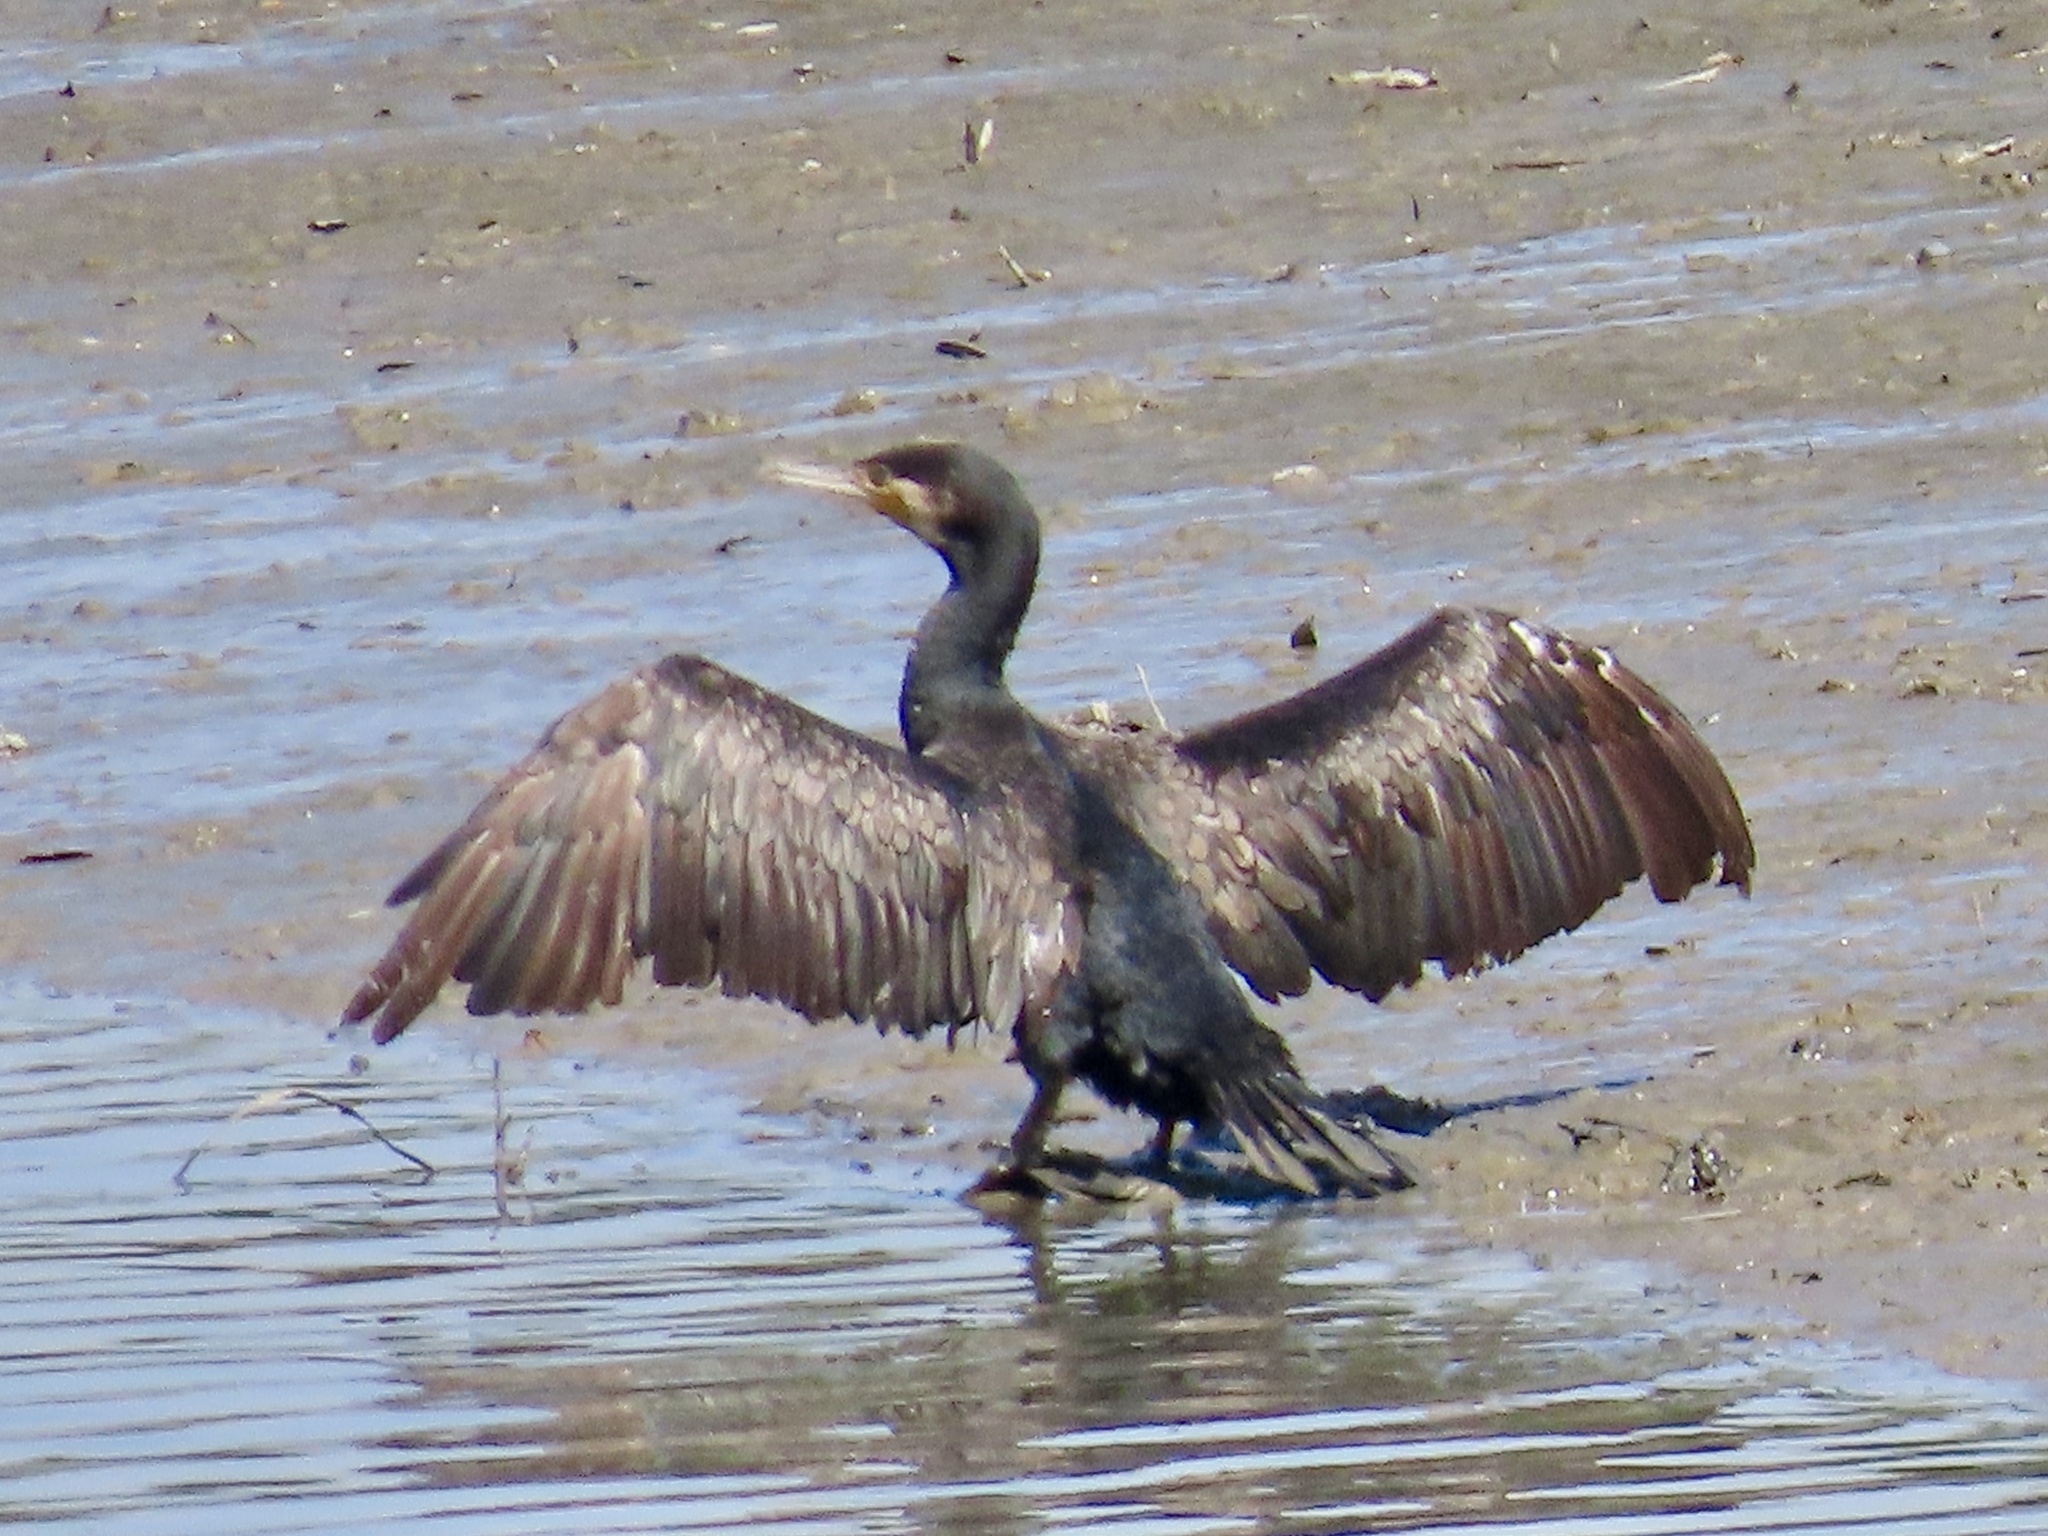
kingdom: Animalia
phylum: Chordata
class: Aves
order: Suliformes
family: Phalacrocoracidae
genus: Phalacrocorax
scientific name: Phalacrocorax carbo
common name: Great cormorant
